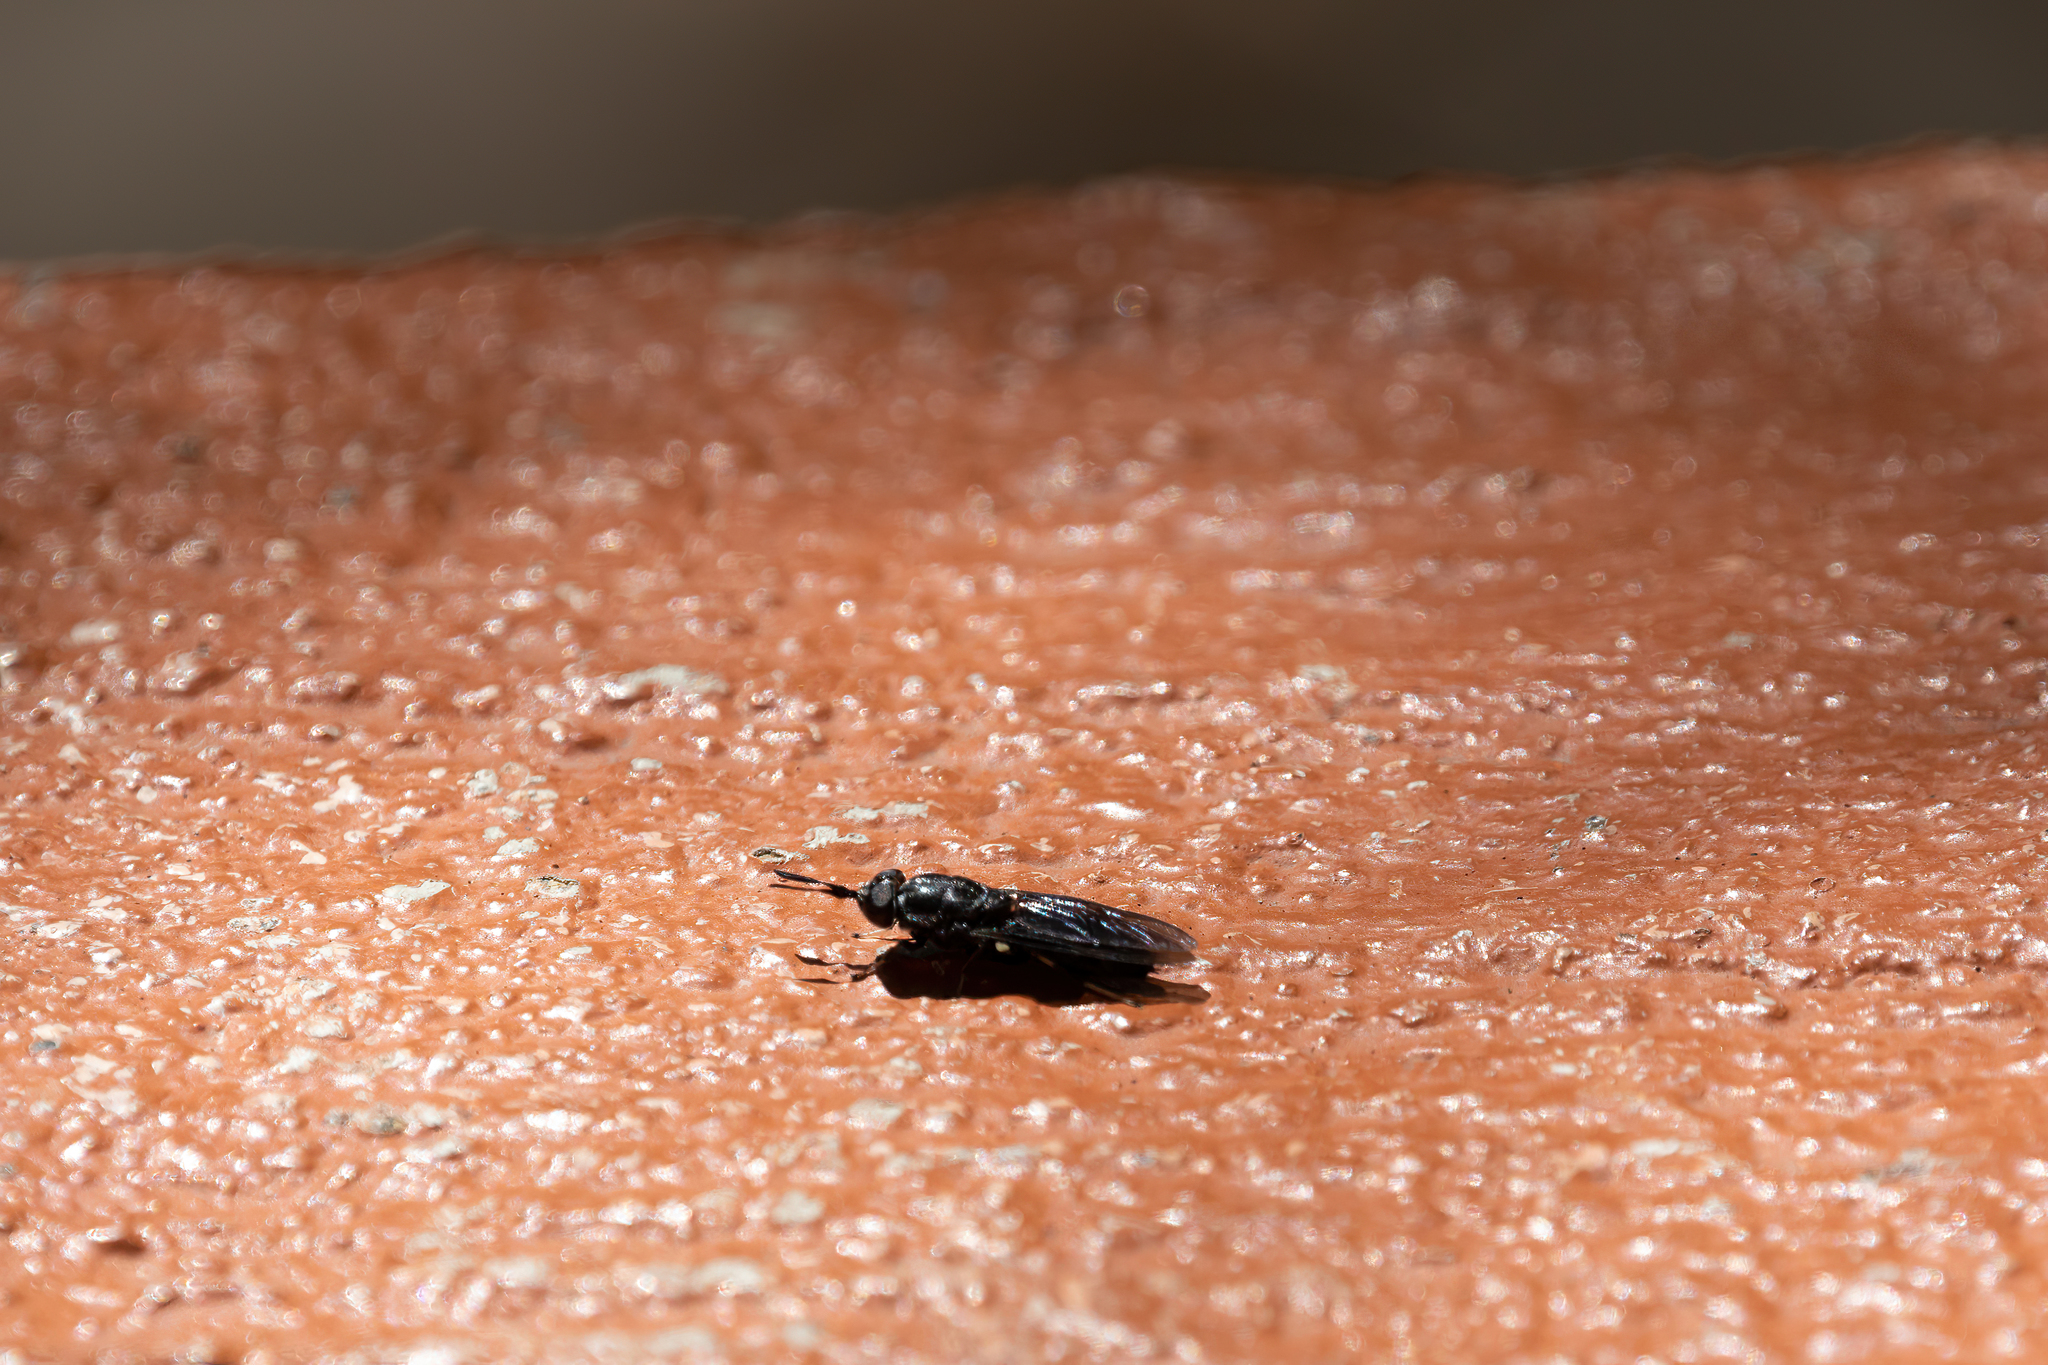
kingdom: Animalia
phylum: Arthropoda
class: Insecta
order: Diptera
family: Stratiomyidae
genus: Hermetia
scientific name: Hermetia sexmaculata
